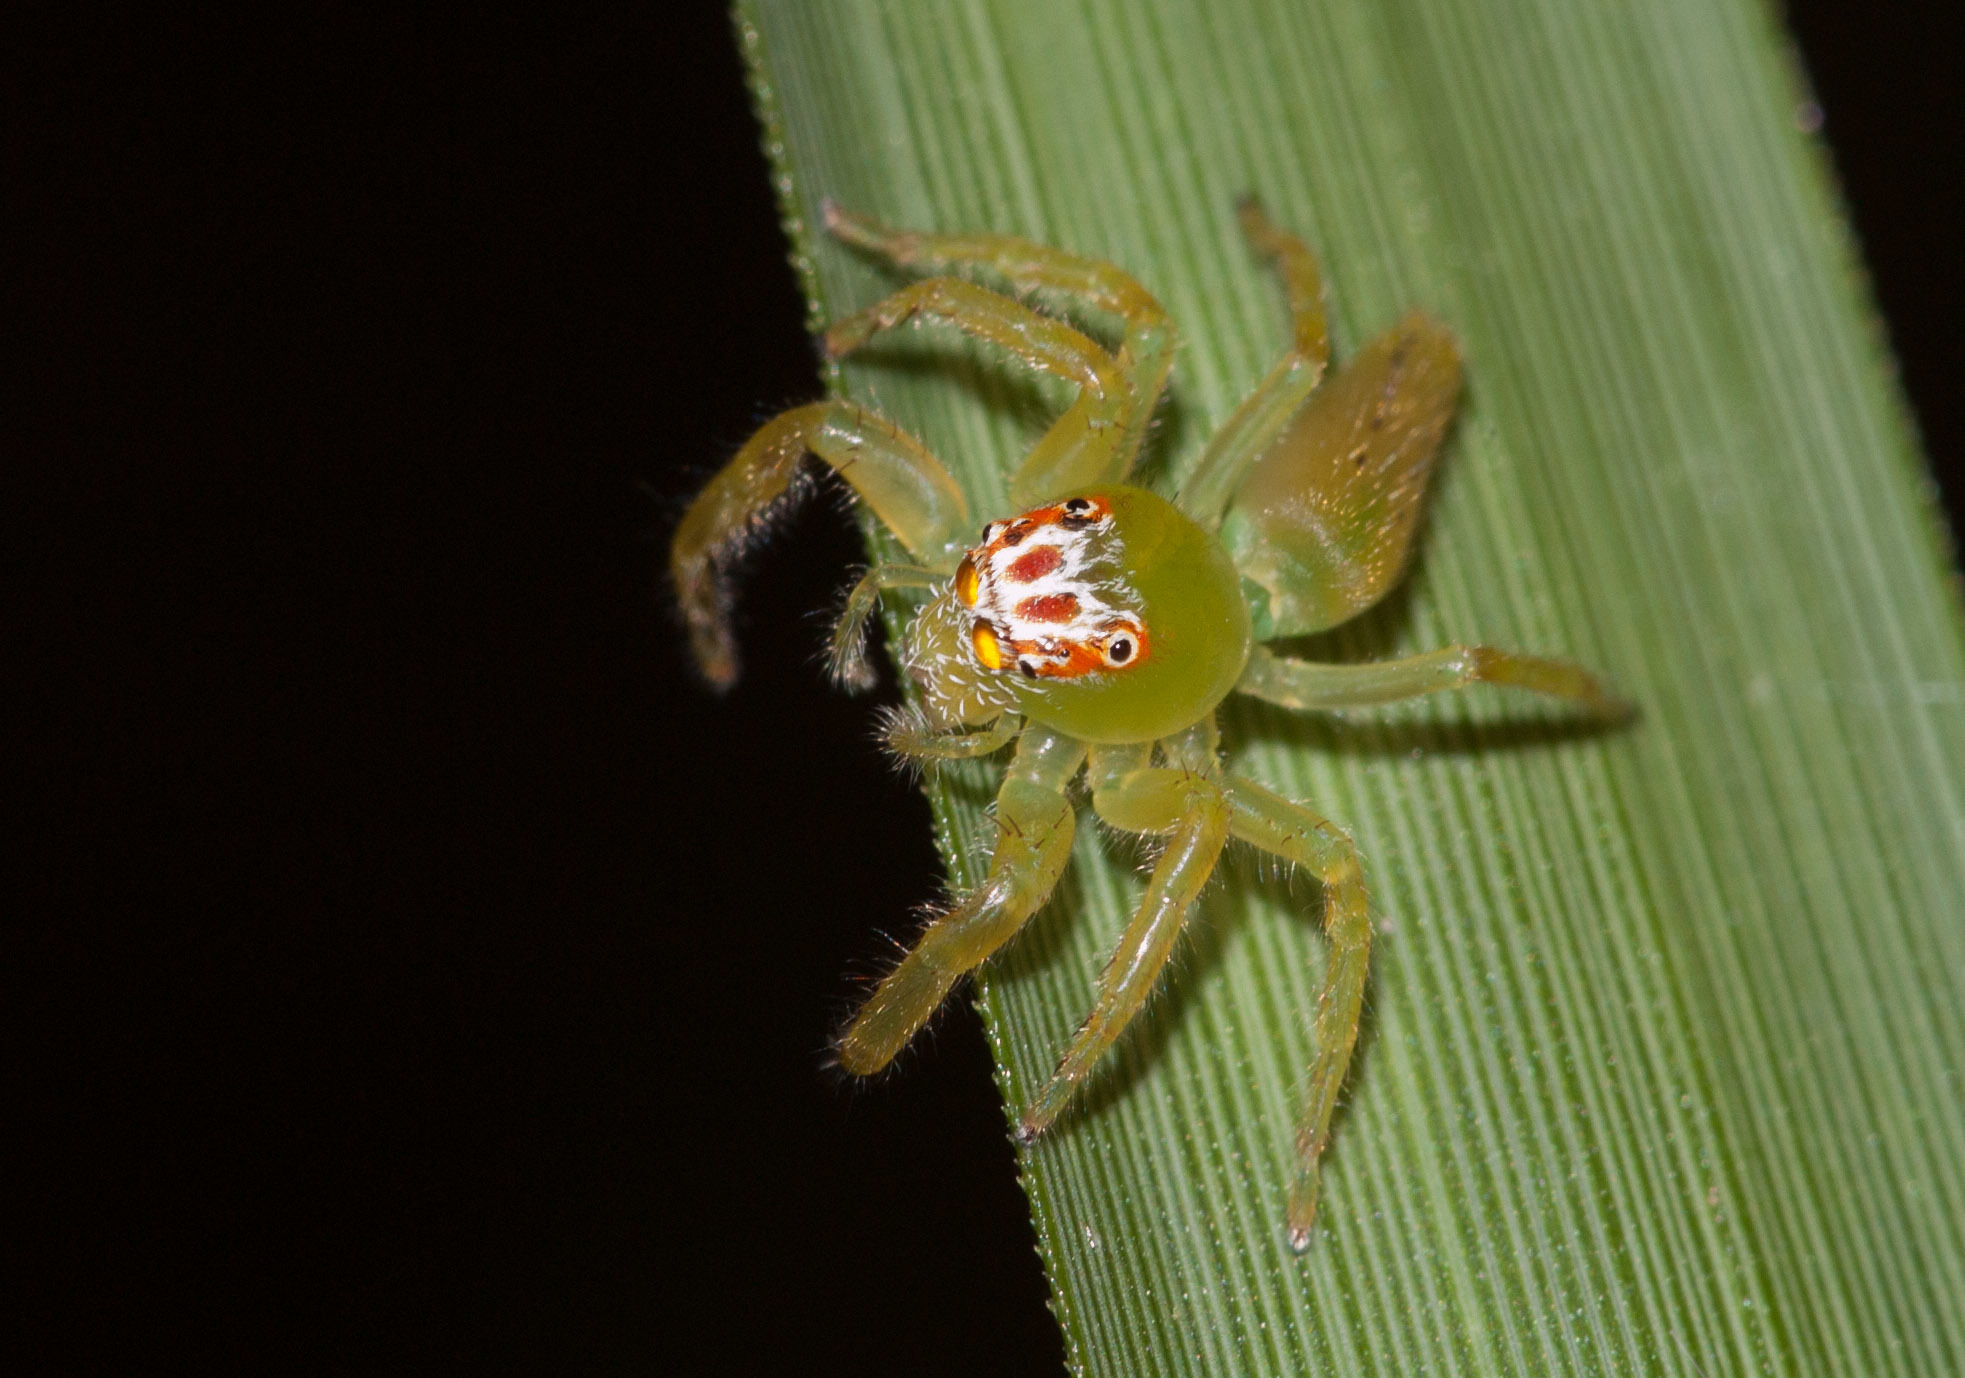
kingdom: Animalia
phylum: Arthropoda
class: Arachnida
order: Araneae
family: Salticidae
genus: Mopsus
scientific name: Mopsus mormon
